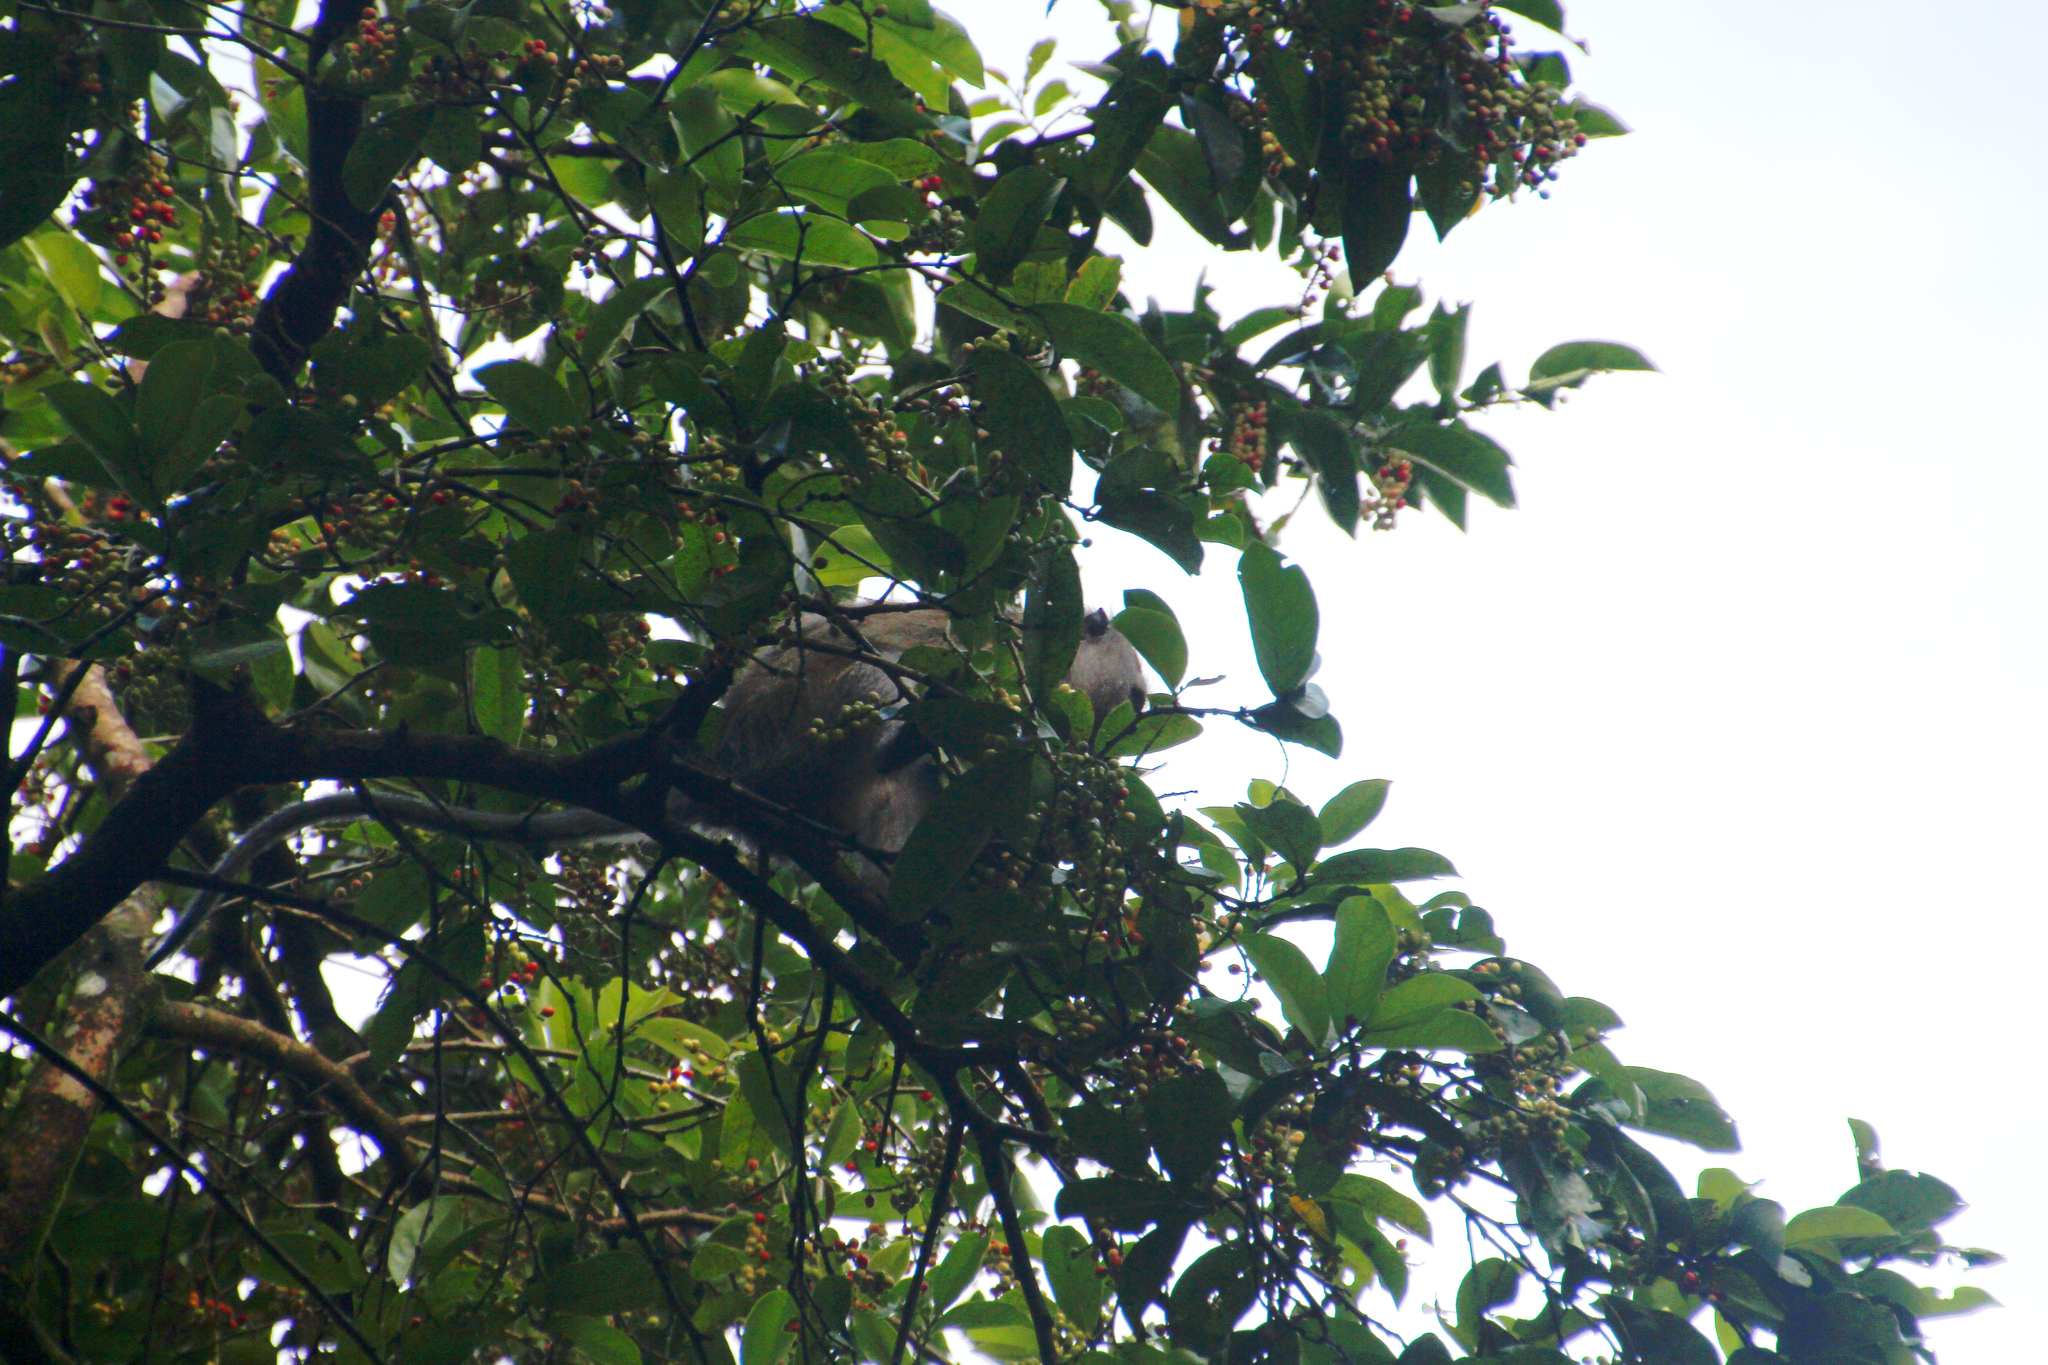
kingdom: Animalia
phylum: Chordata
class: Mammalia
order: Primates
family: Cercopithecidae
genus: Macaca
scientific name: Macaca fascicularis
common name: Crab-eating macaque
